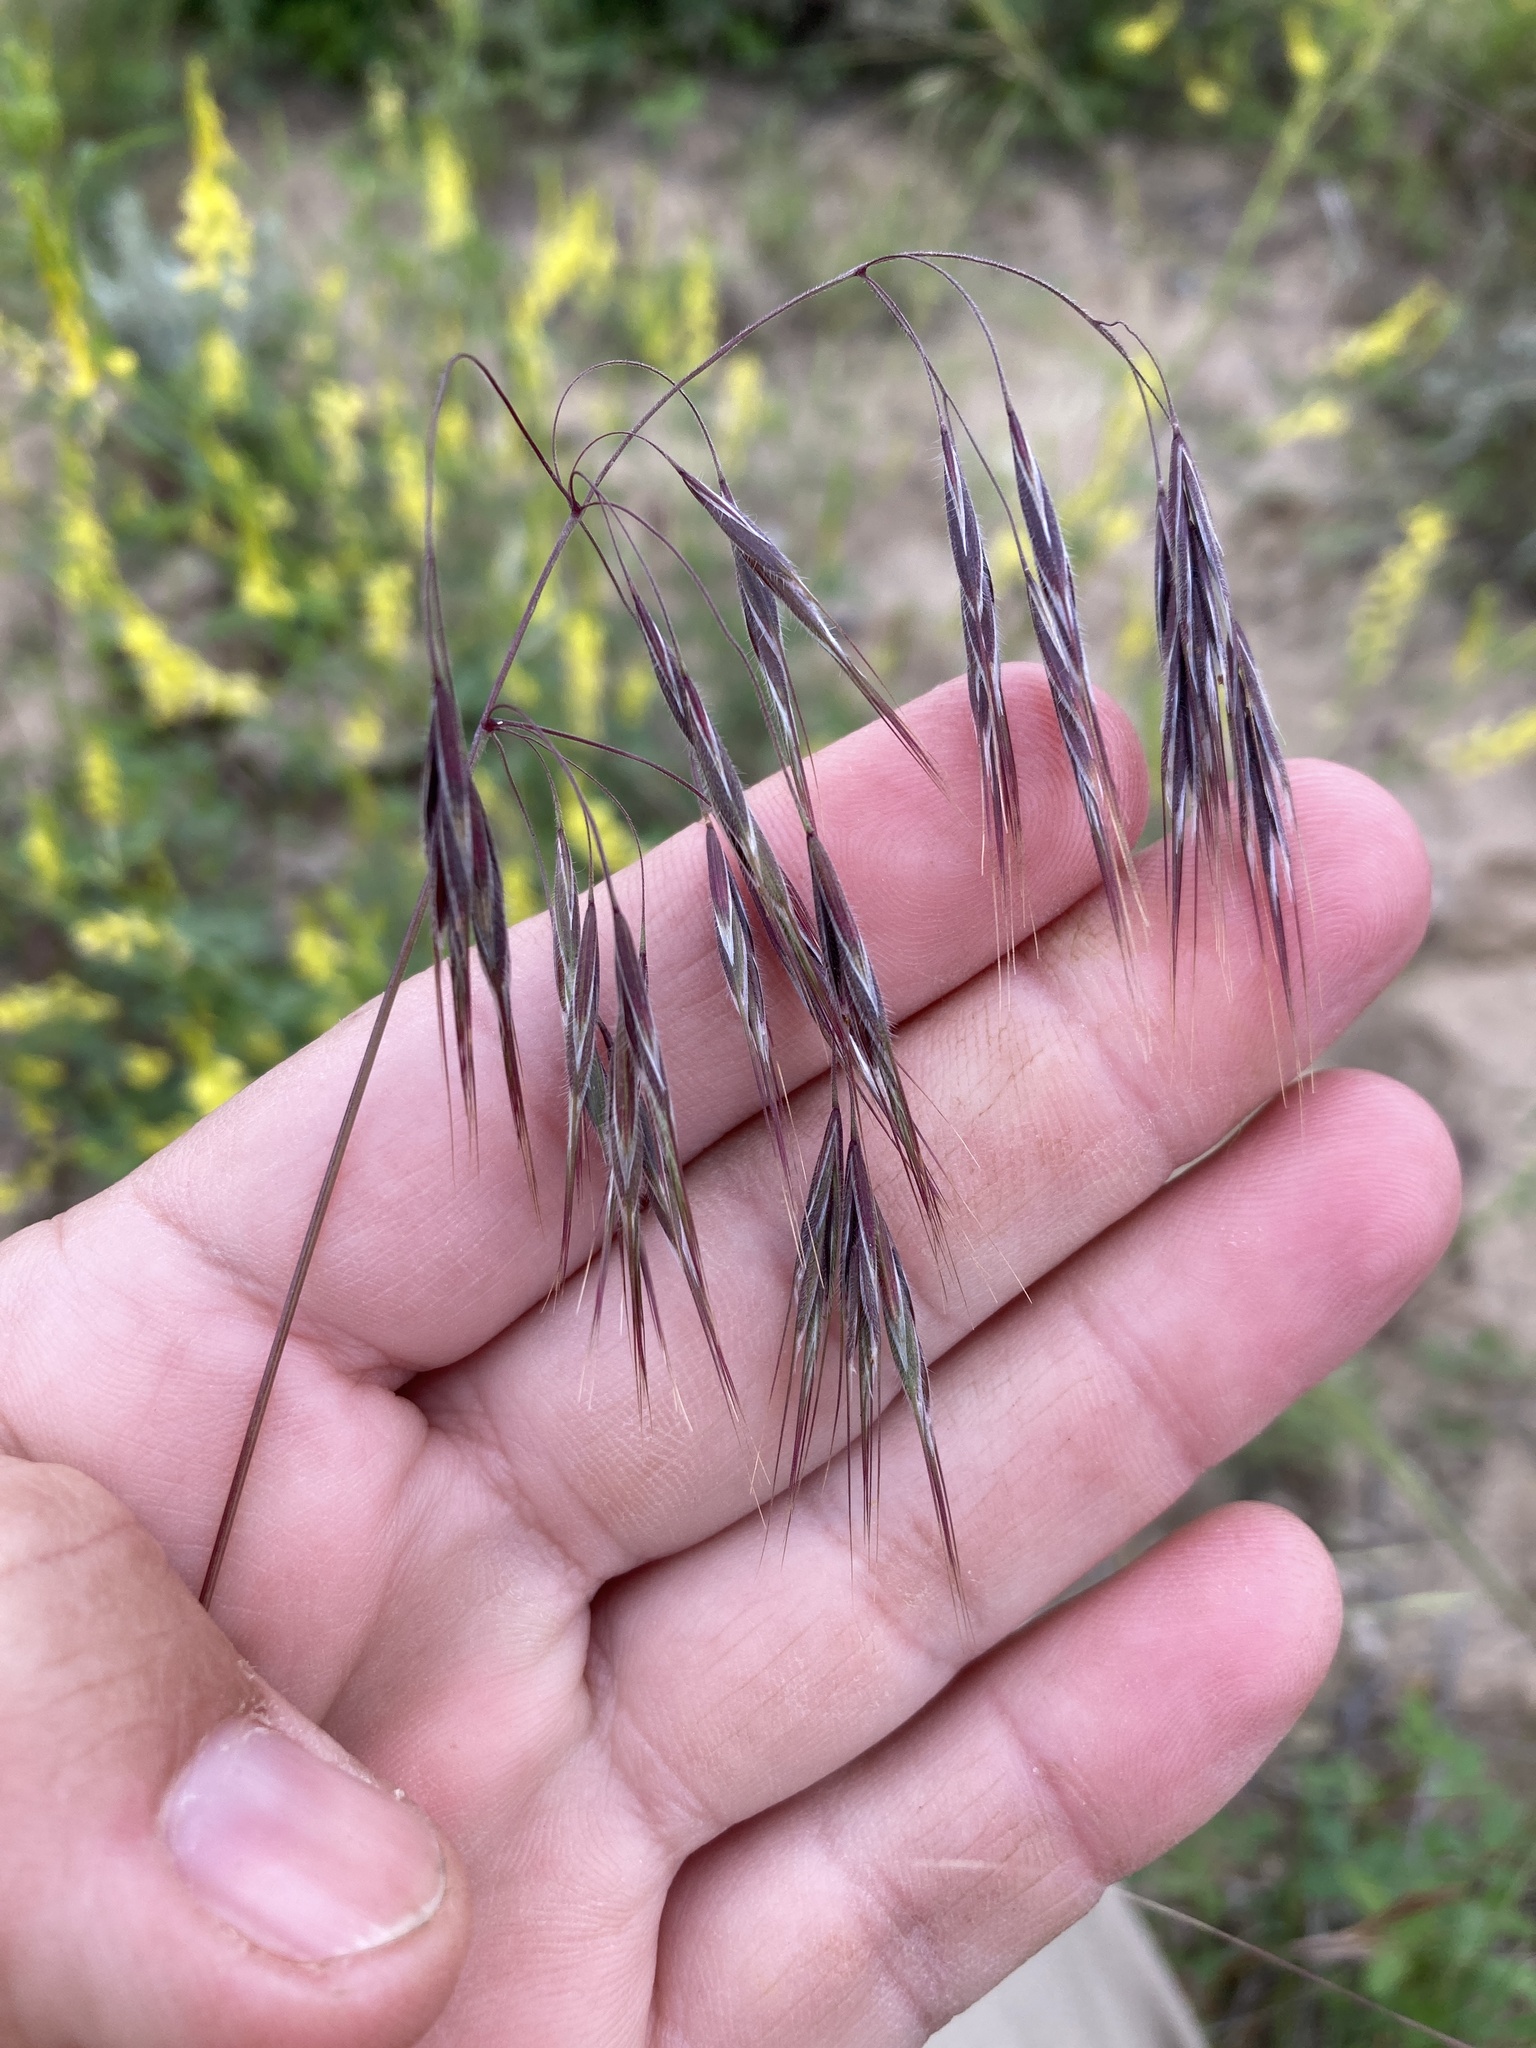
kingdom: Plantae
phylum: Tracheophyta
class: Liliopsida
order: Poales
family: Poaceae
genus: Bromus
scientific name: Bromus tectorum
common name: Cheatgrass
